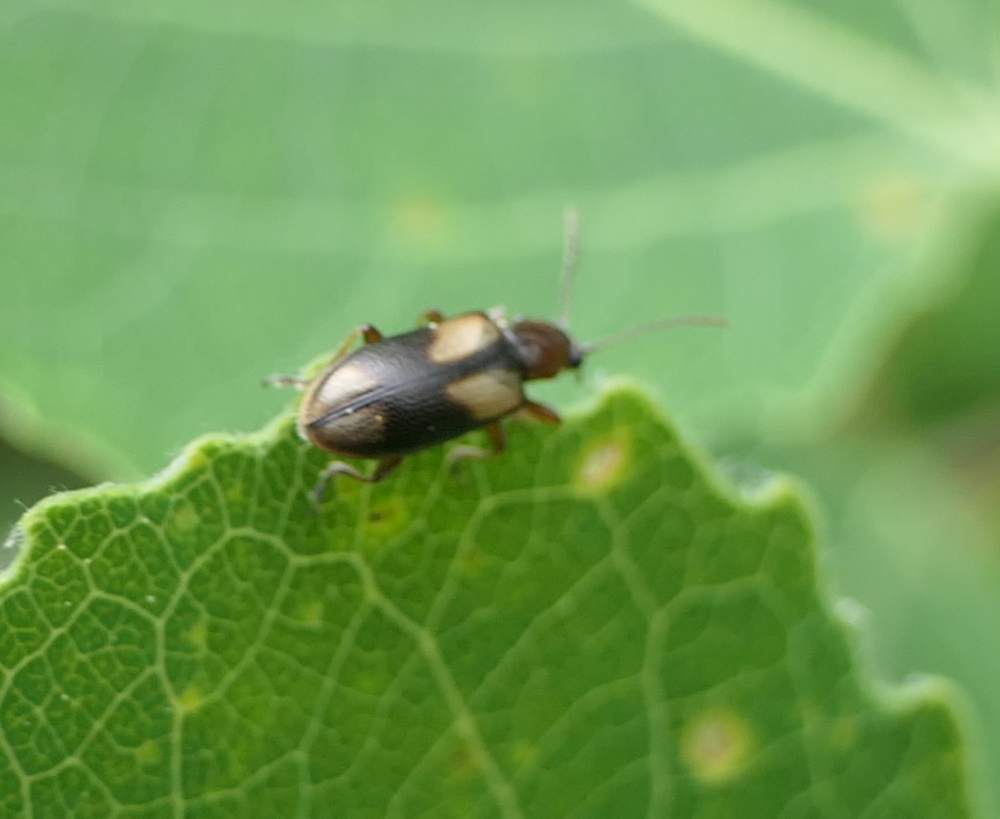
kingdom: Animalia
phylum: Arthropoda
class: Insecta
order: Coleoptera
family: Orsodacnidae
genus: Orsodacne
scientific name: Orsodacne atra
